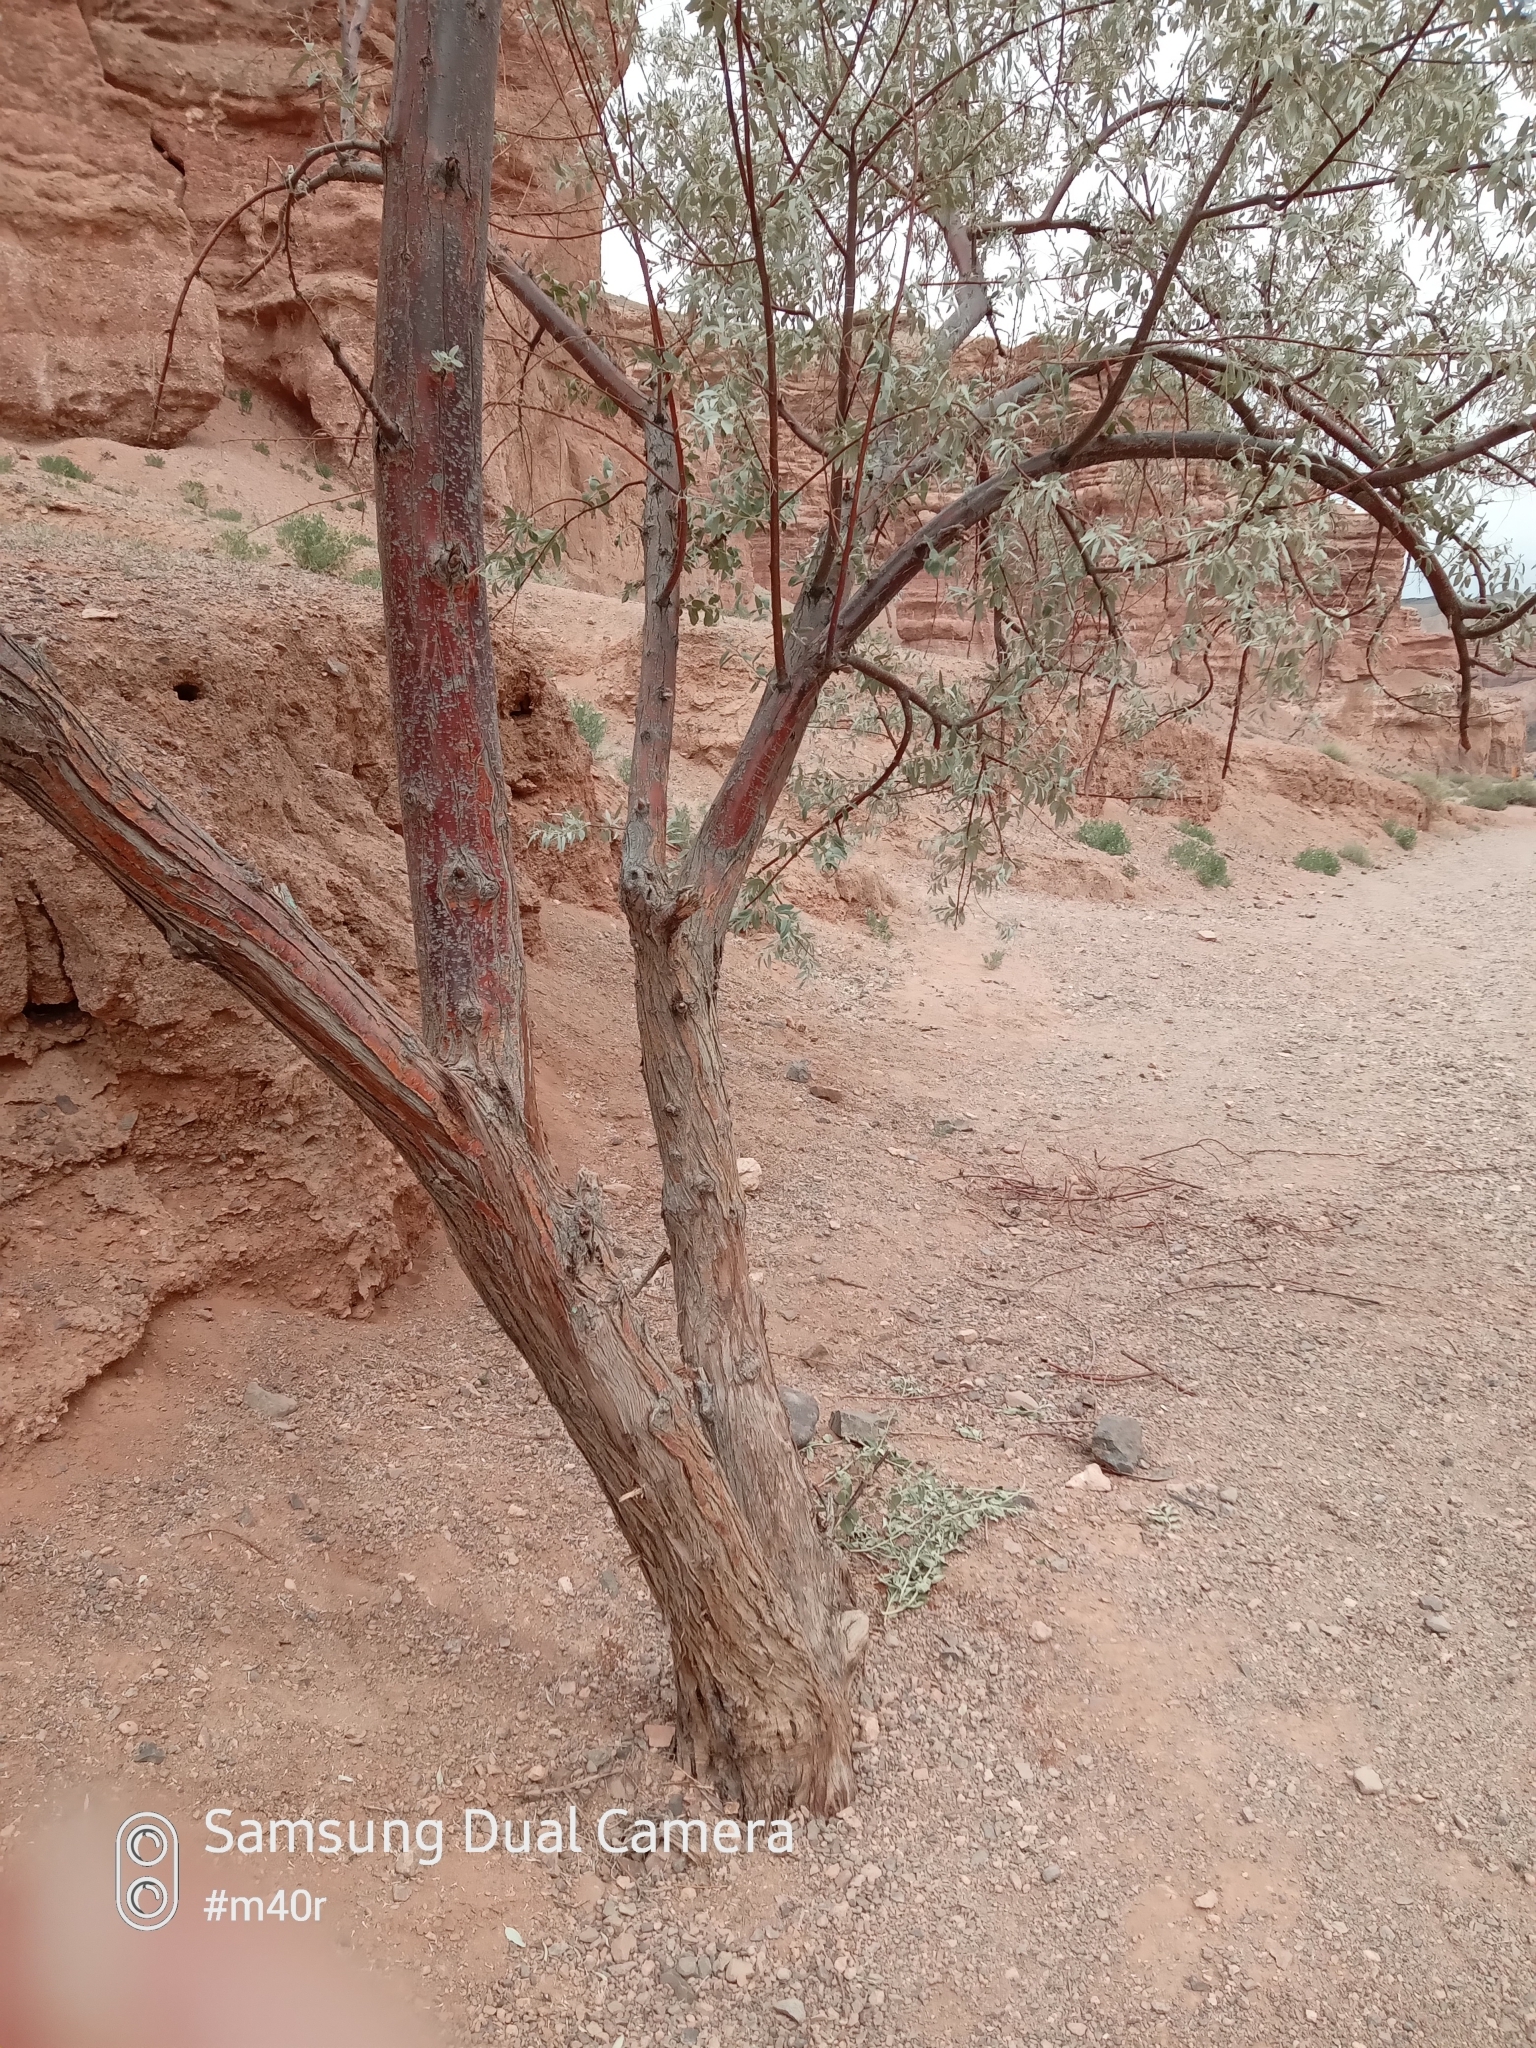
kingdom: Plantae
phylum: Tracheophyta
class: Magnoliopsida
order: Rosales
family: Elaeagnaceae
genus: Elaeagnus
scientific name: Elaeagnus angustifolia
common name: Russian olive
